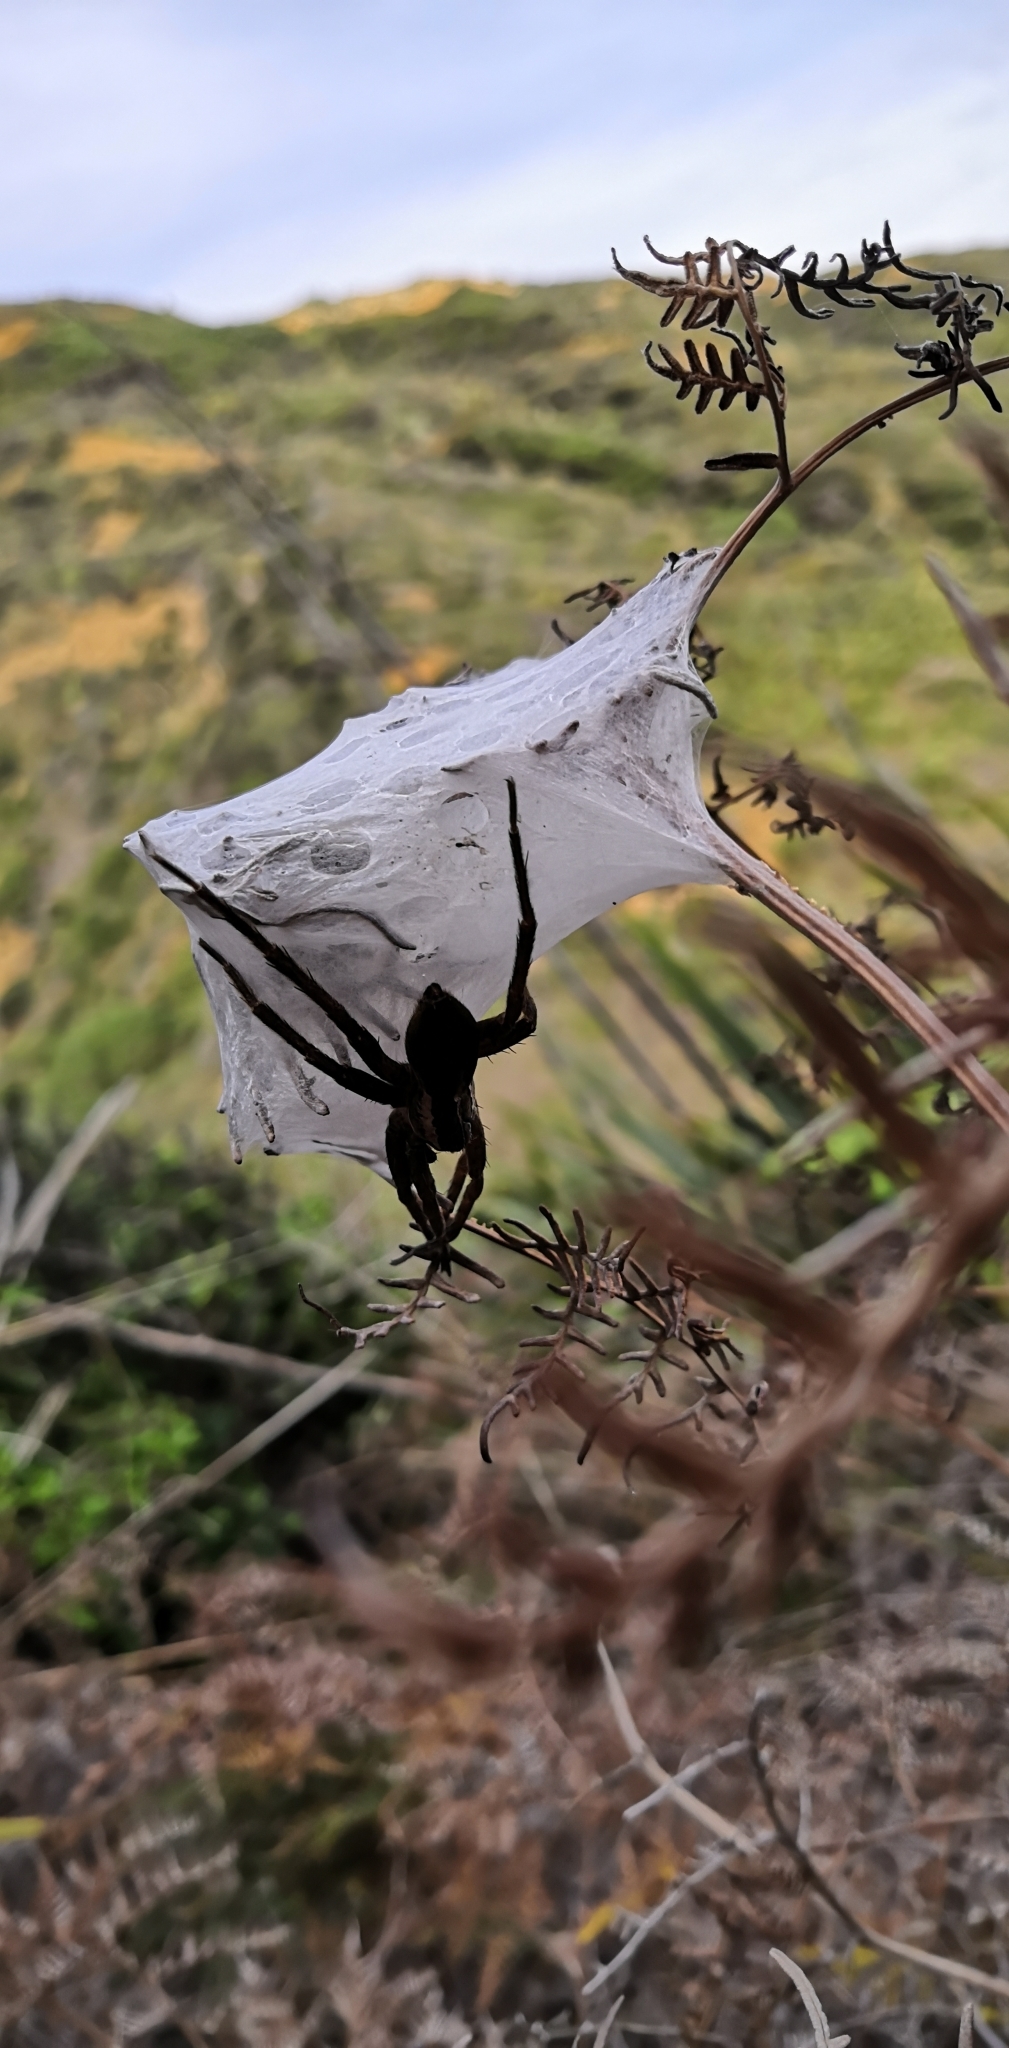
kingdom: Animalia
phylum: Arthropoda
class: Arachnida
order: Araneae
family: Pisauridae
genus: Dolomedes
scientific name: Dolomedes minor
